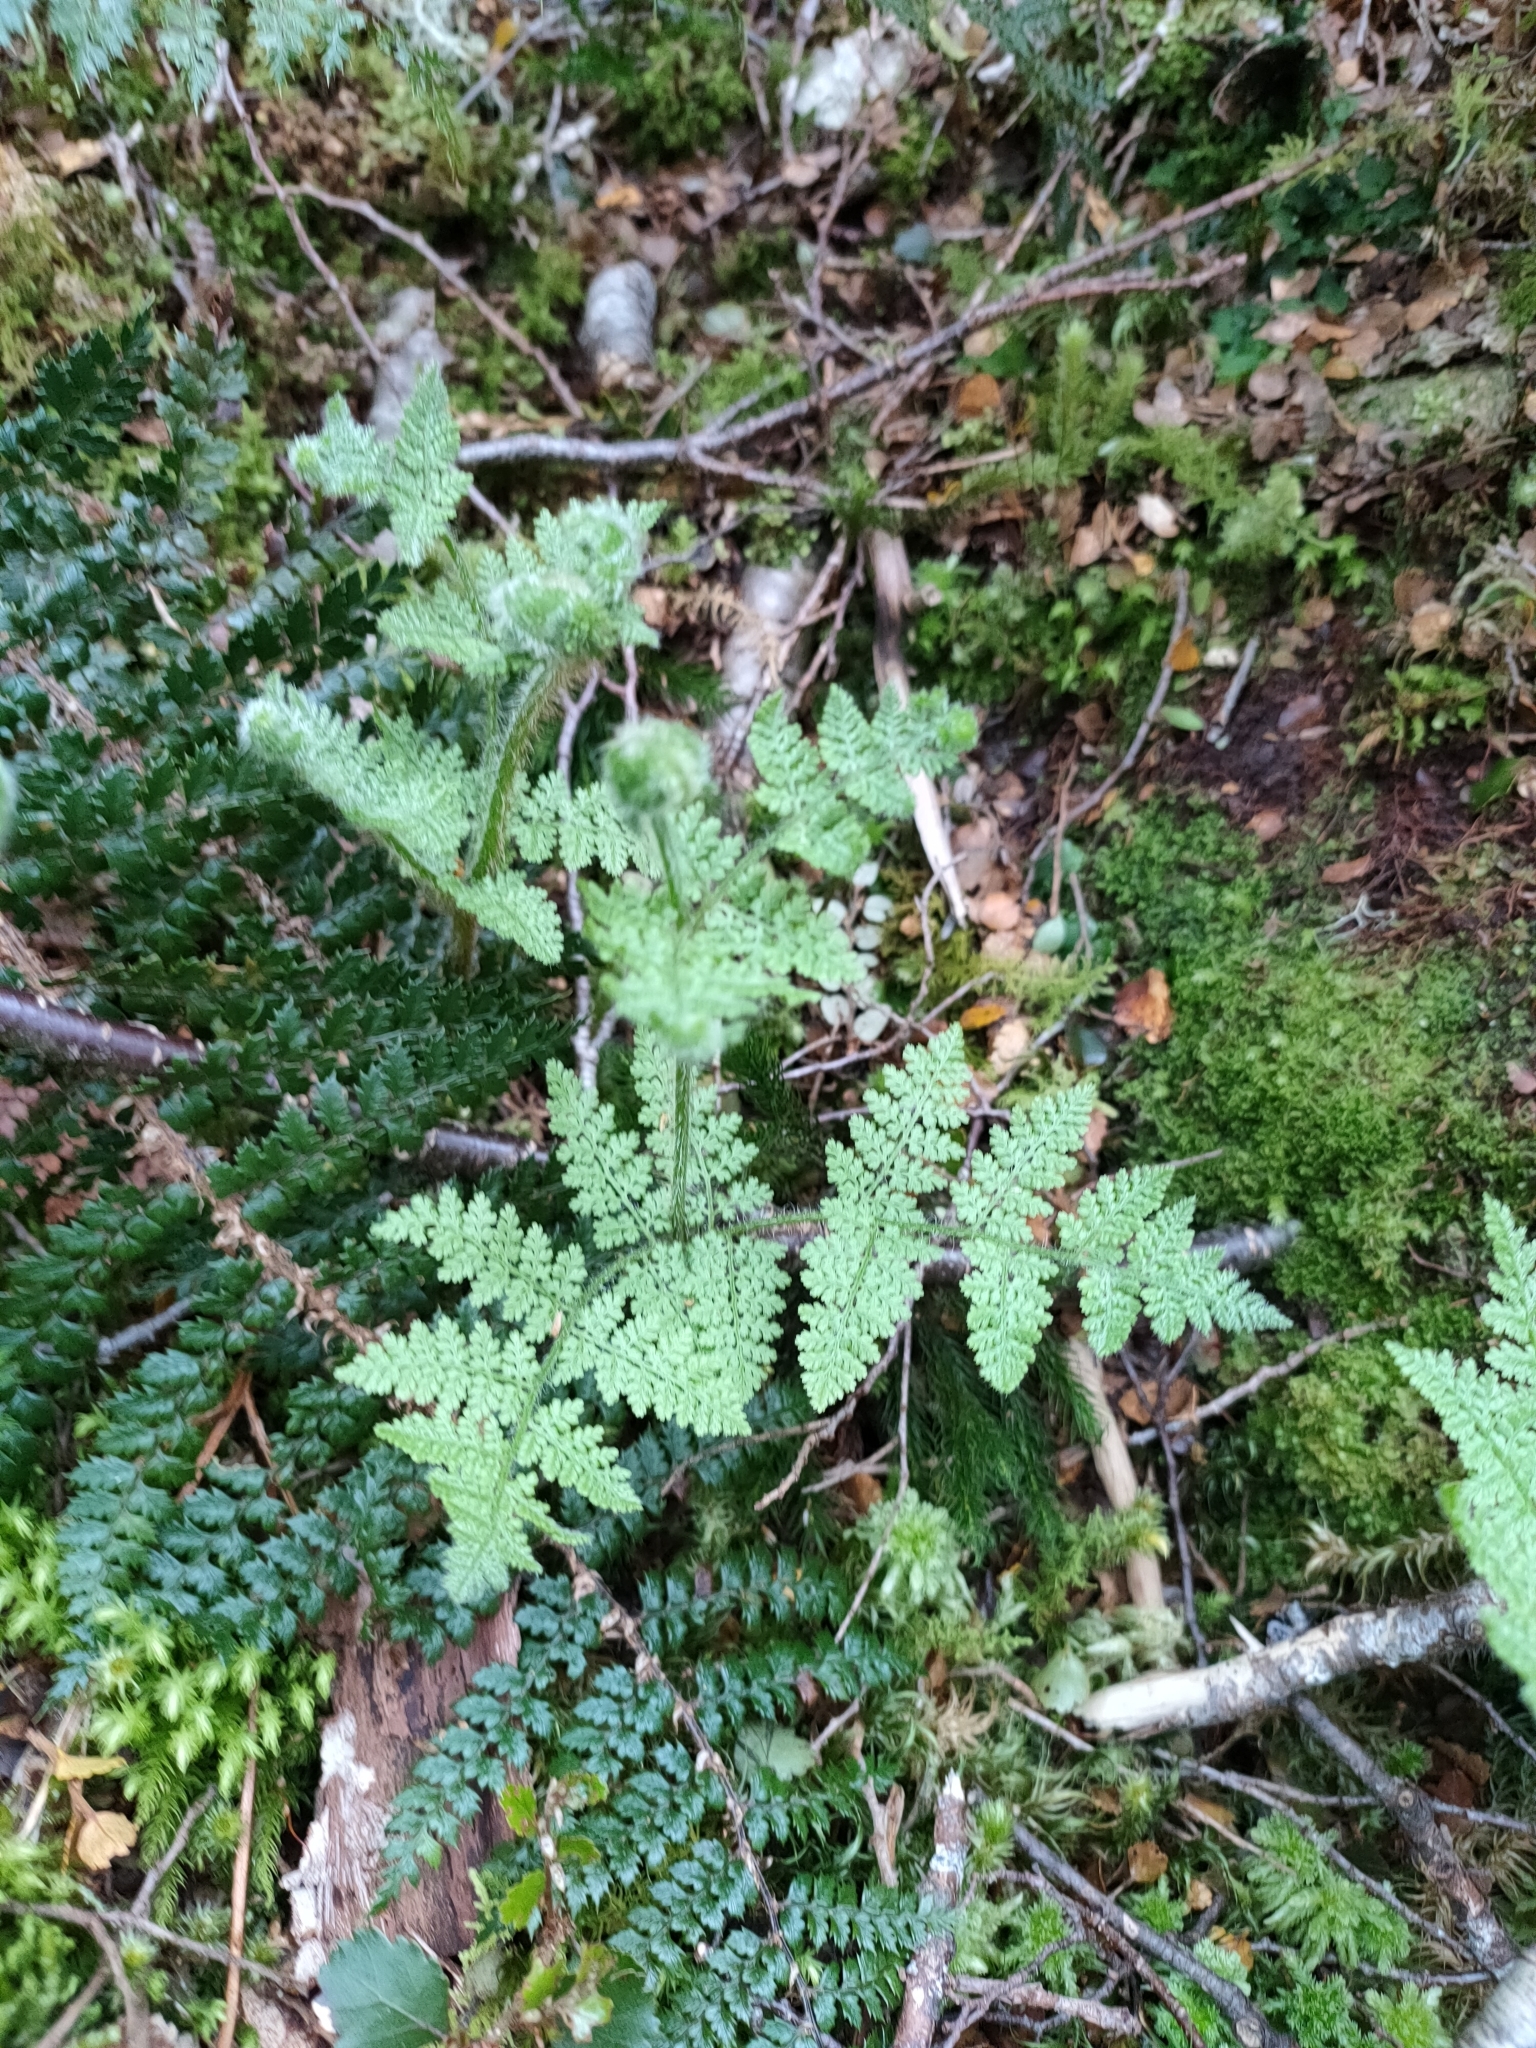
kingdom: Plantae
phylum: Tracheophyta
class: Polypodiopsida
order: Polypodiales
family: Dennstaedtiaceae
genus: Hypolepis
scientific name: Hypolepis millefolium
